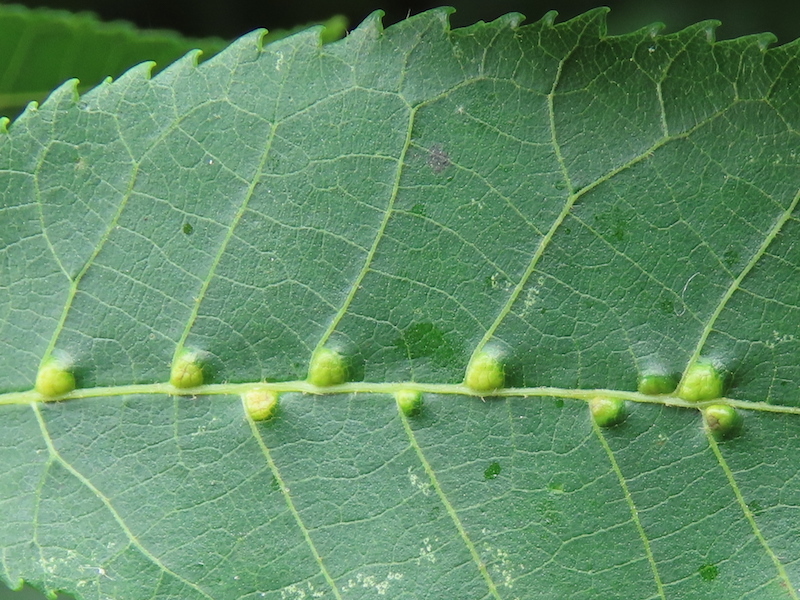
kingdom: Animalia
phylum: Arthropoda
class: Arachnida
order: Trombidiformes
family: Eriophyidae
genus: Aceria
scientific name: Aceria
